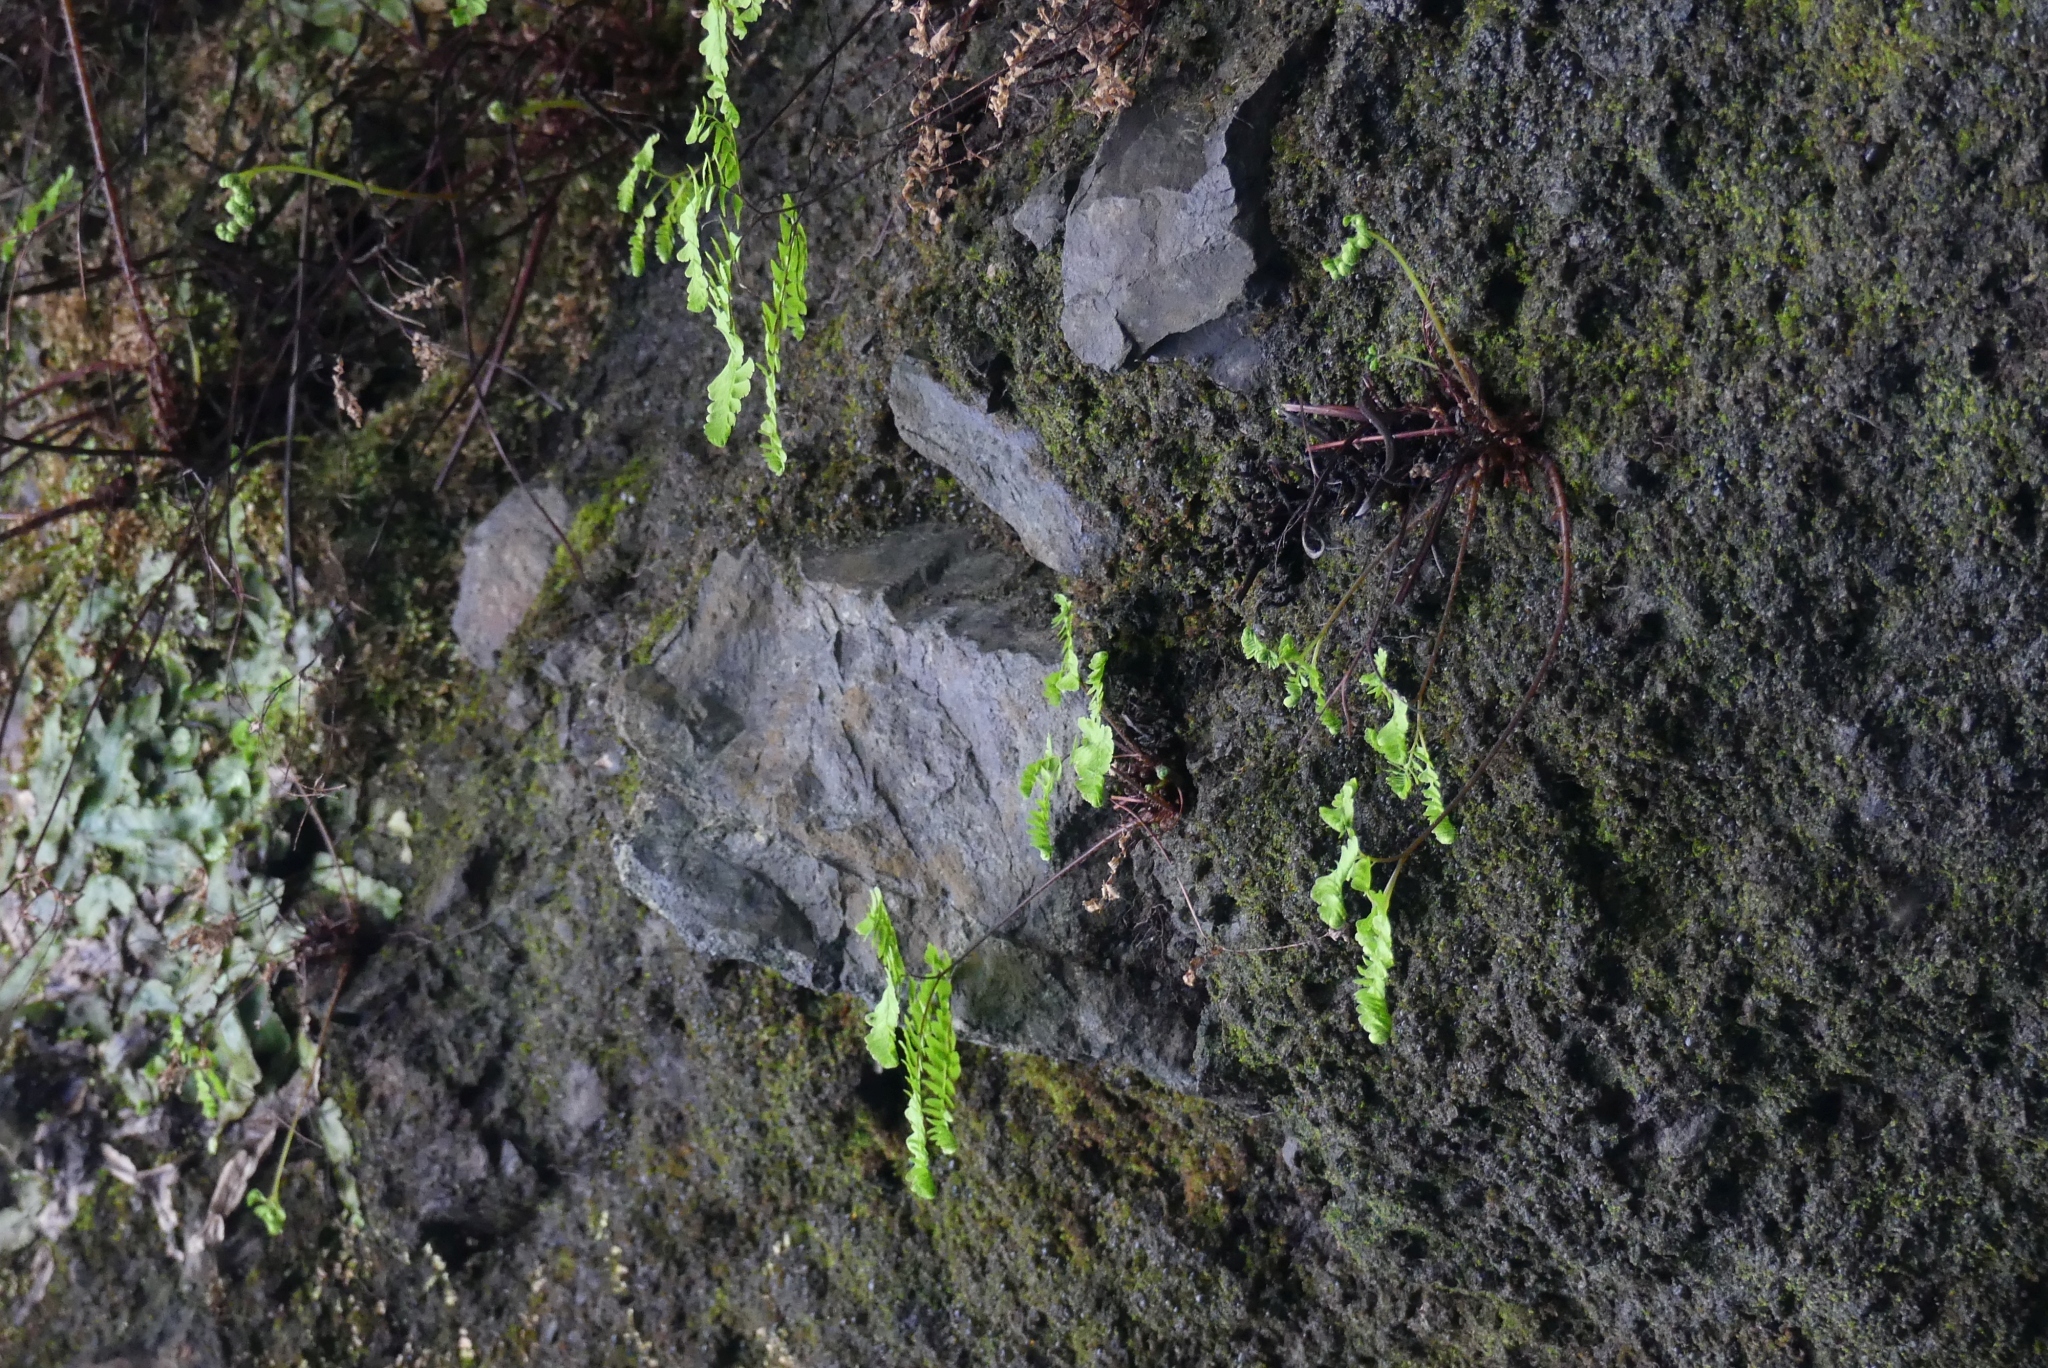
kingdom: Plantae
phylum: Tracheophyta
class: Polypodiopsida
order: Polypodiales
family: Pteridaceae
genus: Adiantum
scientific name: Adiantum aleuticum
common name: Aleutian maidenhair fern
